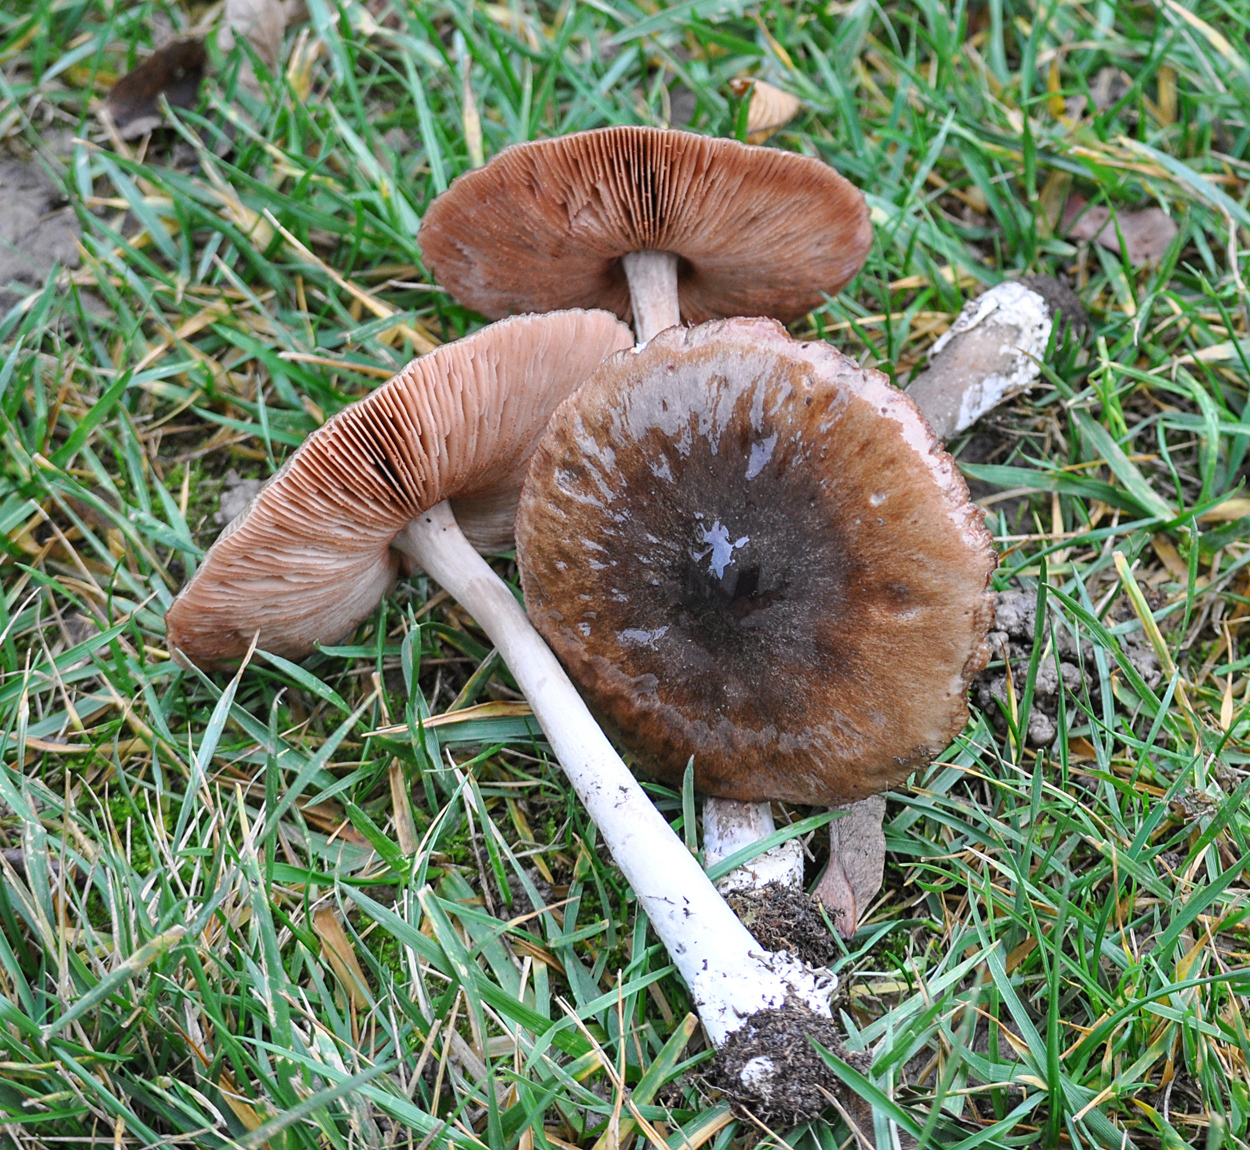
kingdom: Fungi
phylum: Basidiomycota
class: Agaricomycetes
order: Agaricales
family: Pluteaceae
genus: Volvopluteus
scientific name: Volvopluteus gloiocephalus
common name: Stubble rosegill
